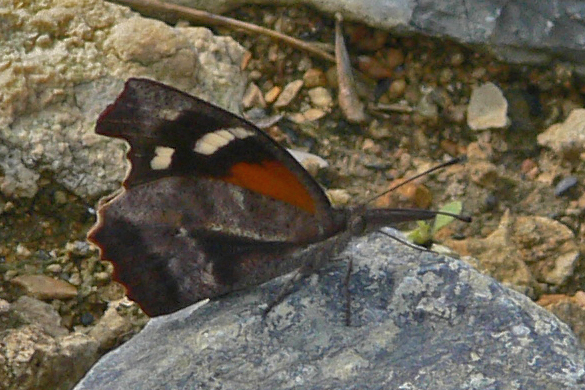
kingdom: Animalia
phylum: Arthropoda
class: Insecta
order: Lepidoptera
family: Nymphalidae
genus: Libytheana
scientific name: Libytheana carinenta
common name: American snout
